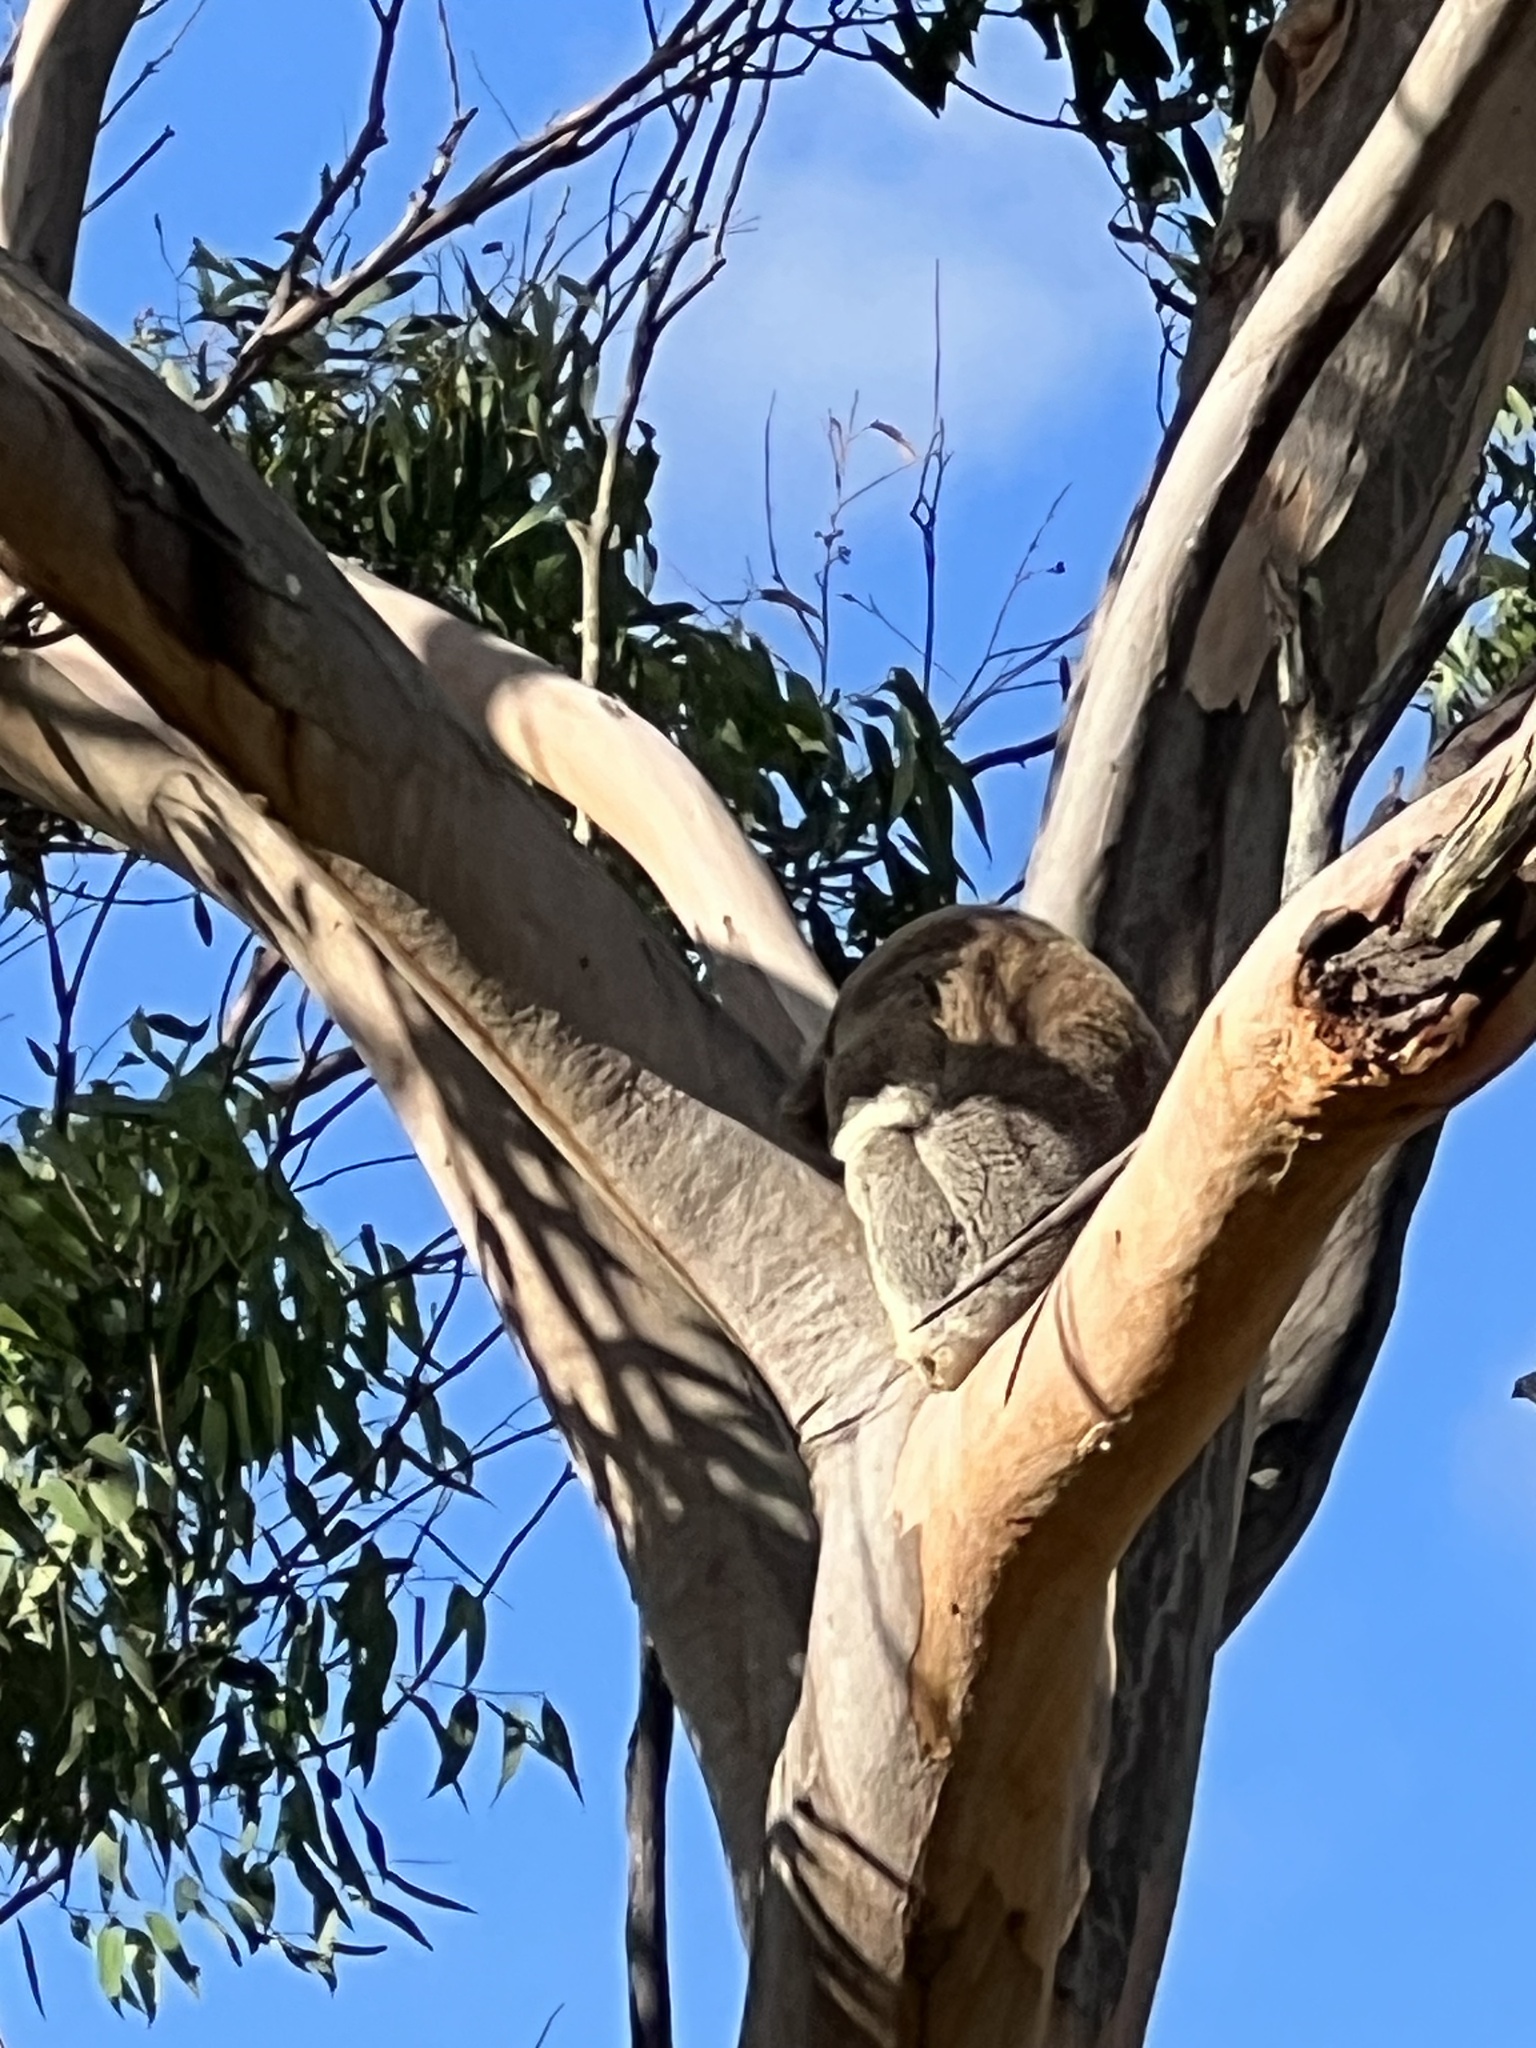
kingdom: Animalia
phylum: Chordata
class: Mammalia
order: Diprotodontia
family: Phascolarctidae
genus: Phascolarctos
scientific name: Phascolarctos cinereus
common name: Koala
